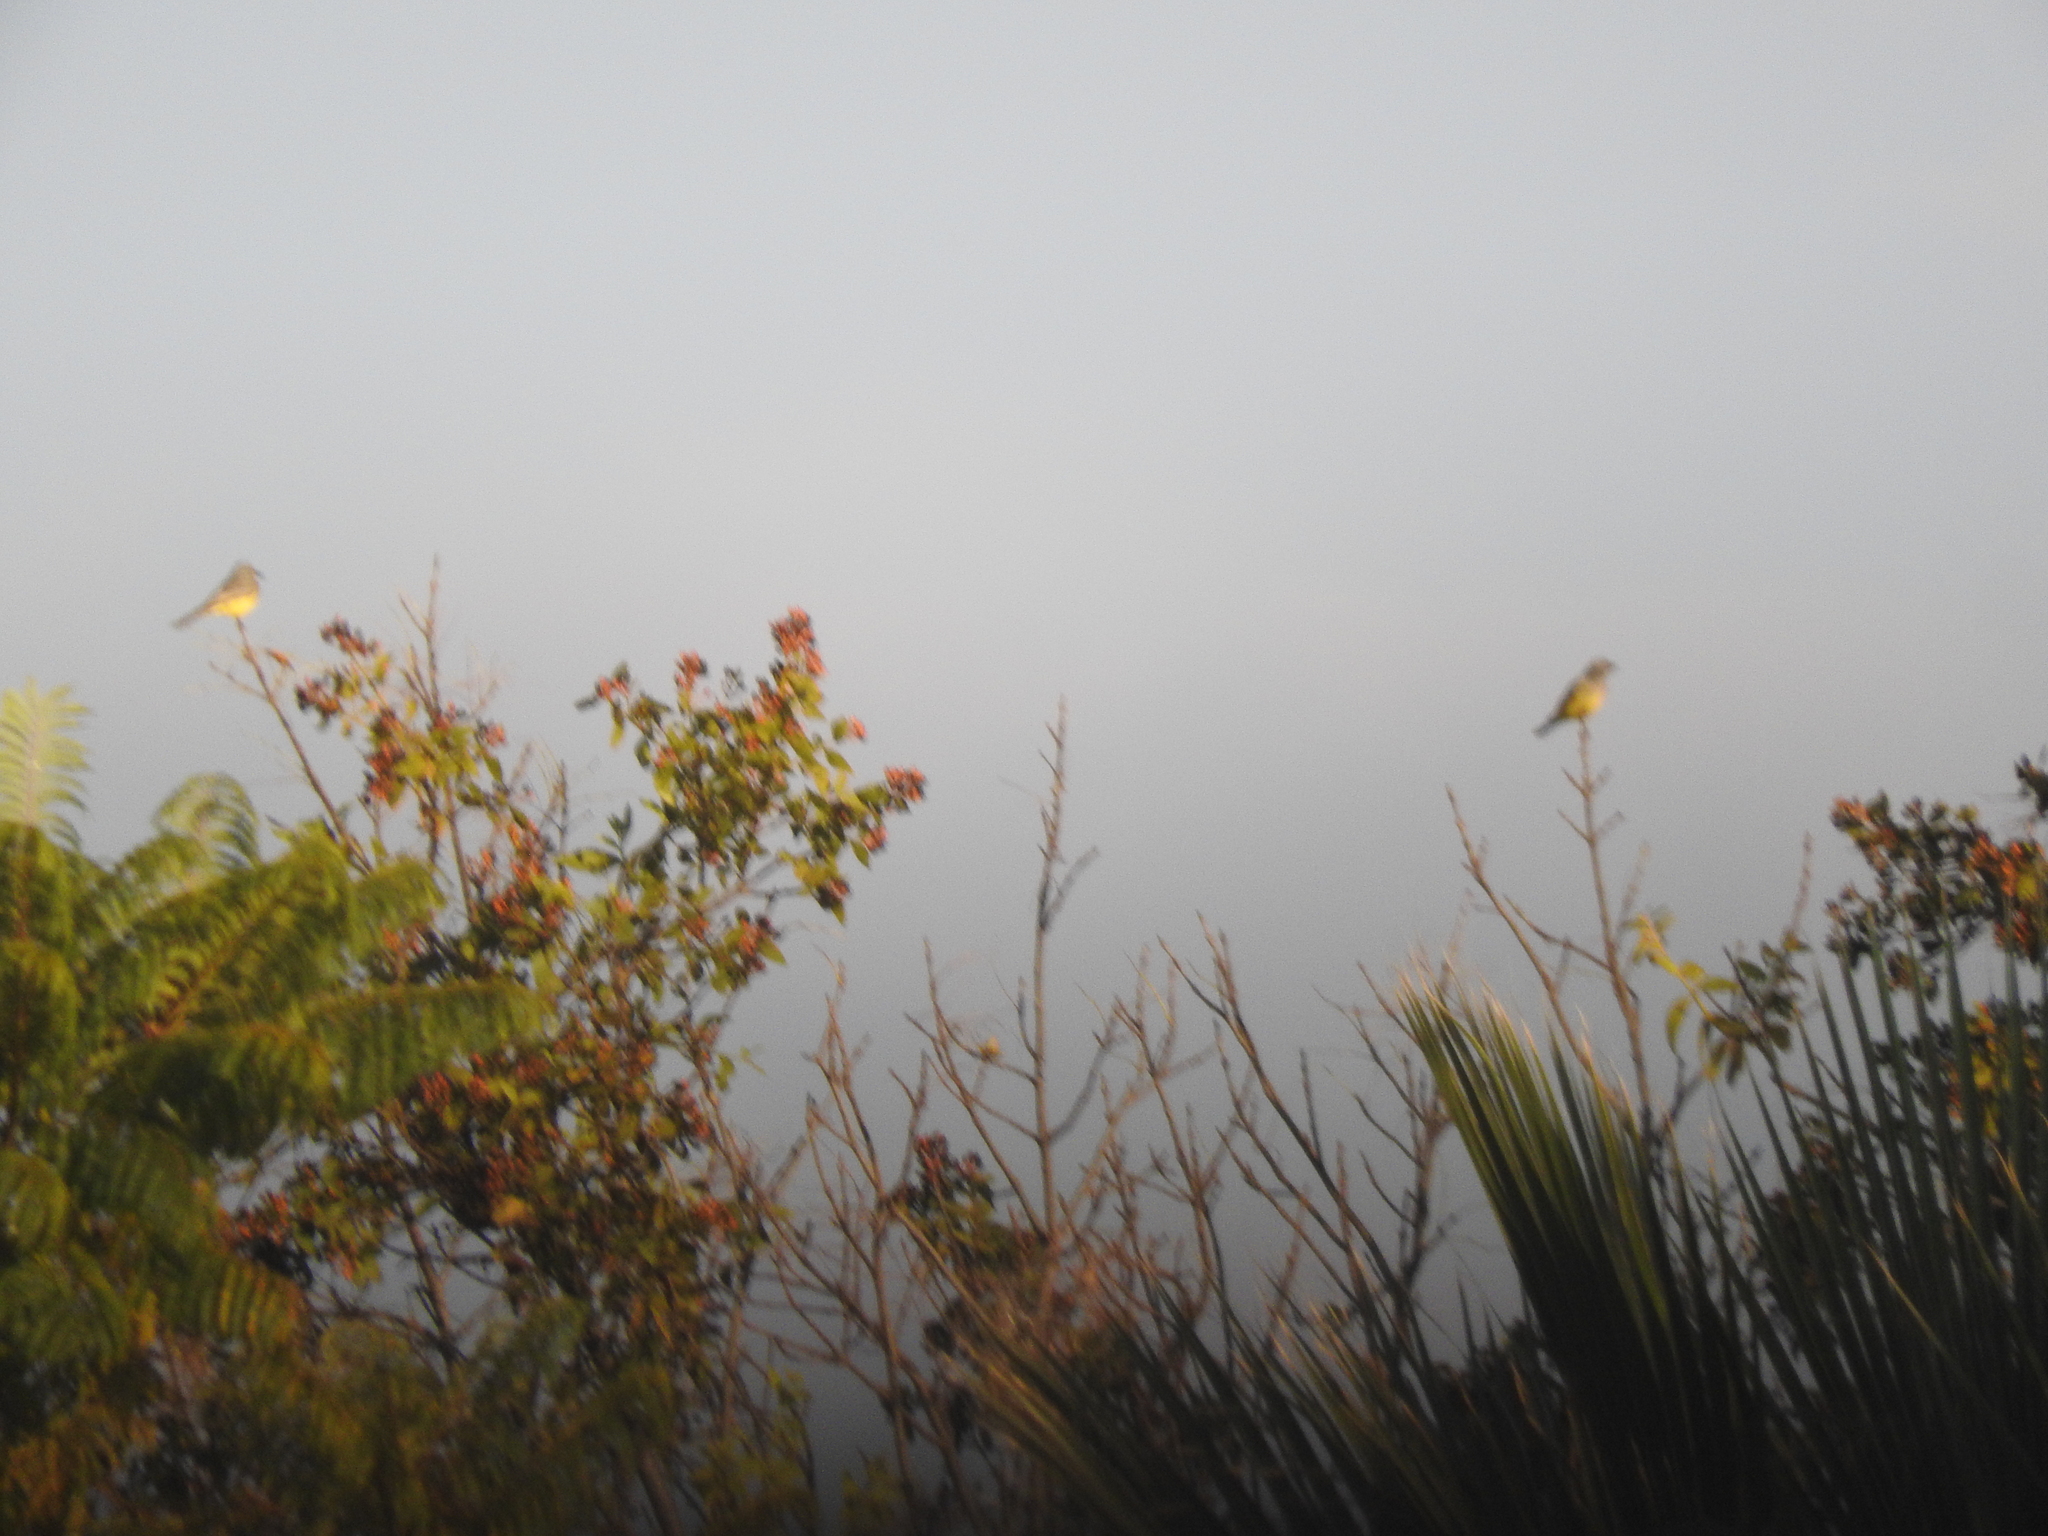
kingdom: Animalia
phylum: Chordata
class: Aves
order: Passeriformes
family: Tyrannidae
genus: Tyrannus
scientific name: Tyrannus vociferans
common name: Cassin's kingbird
